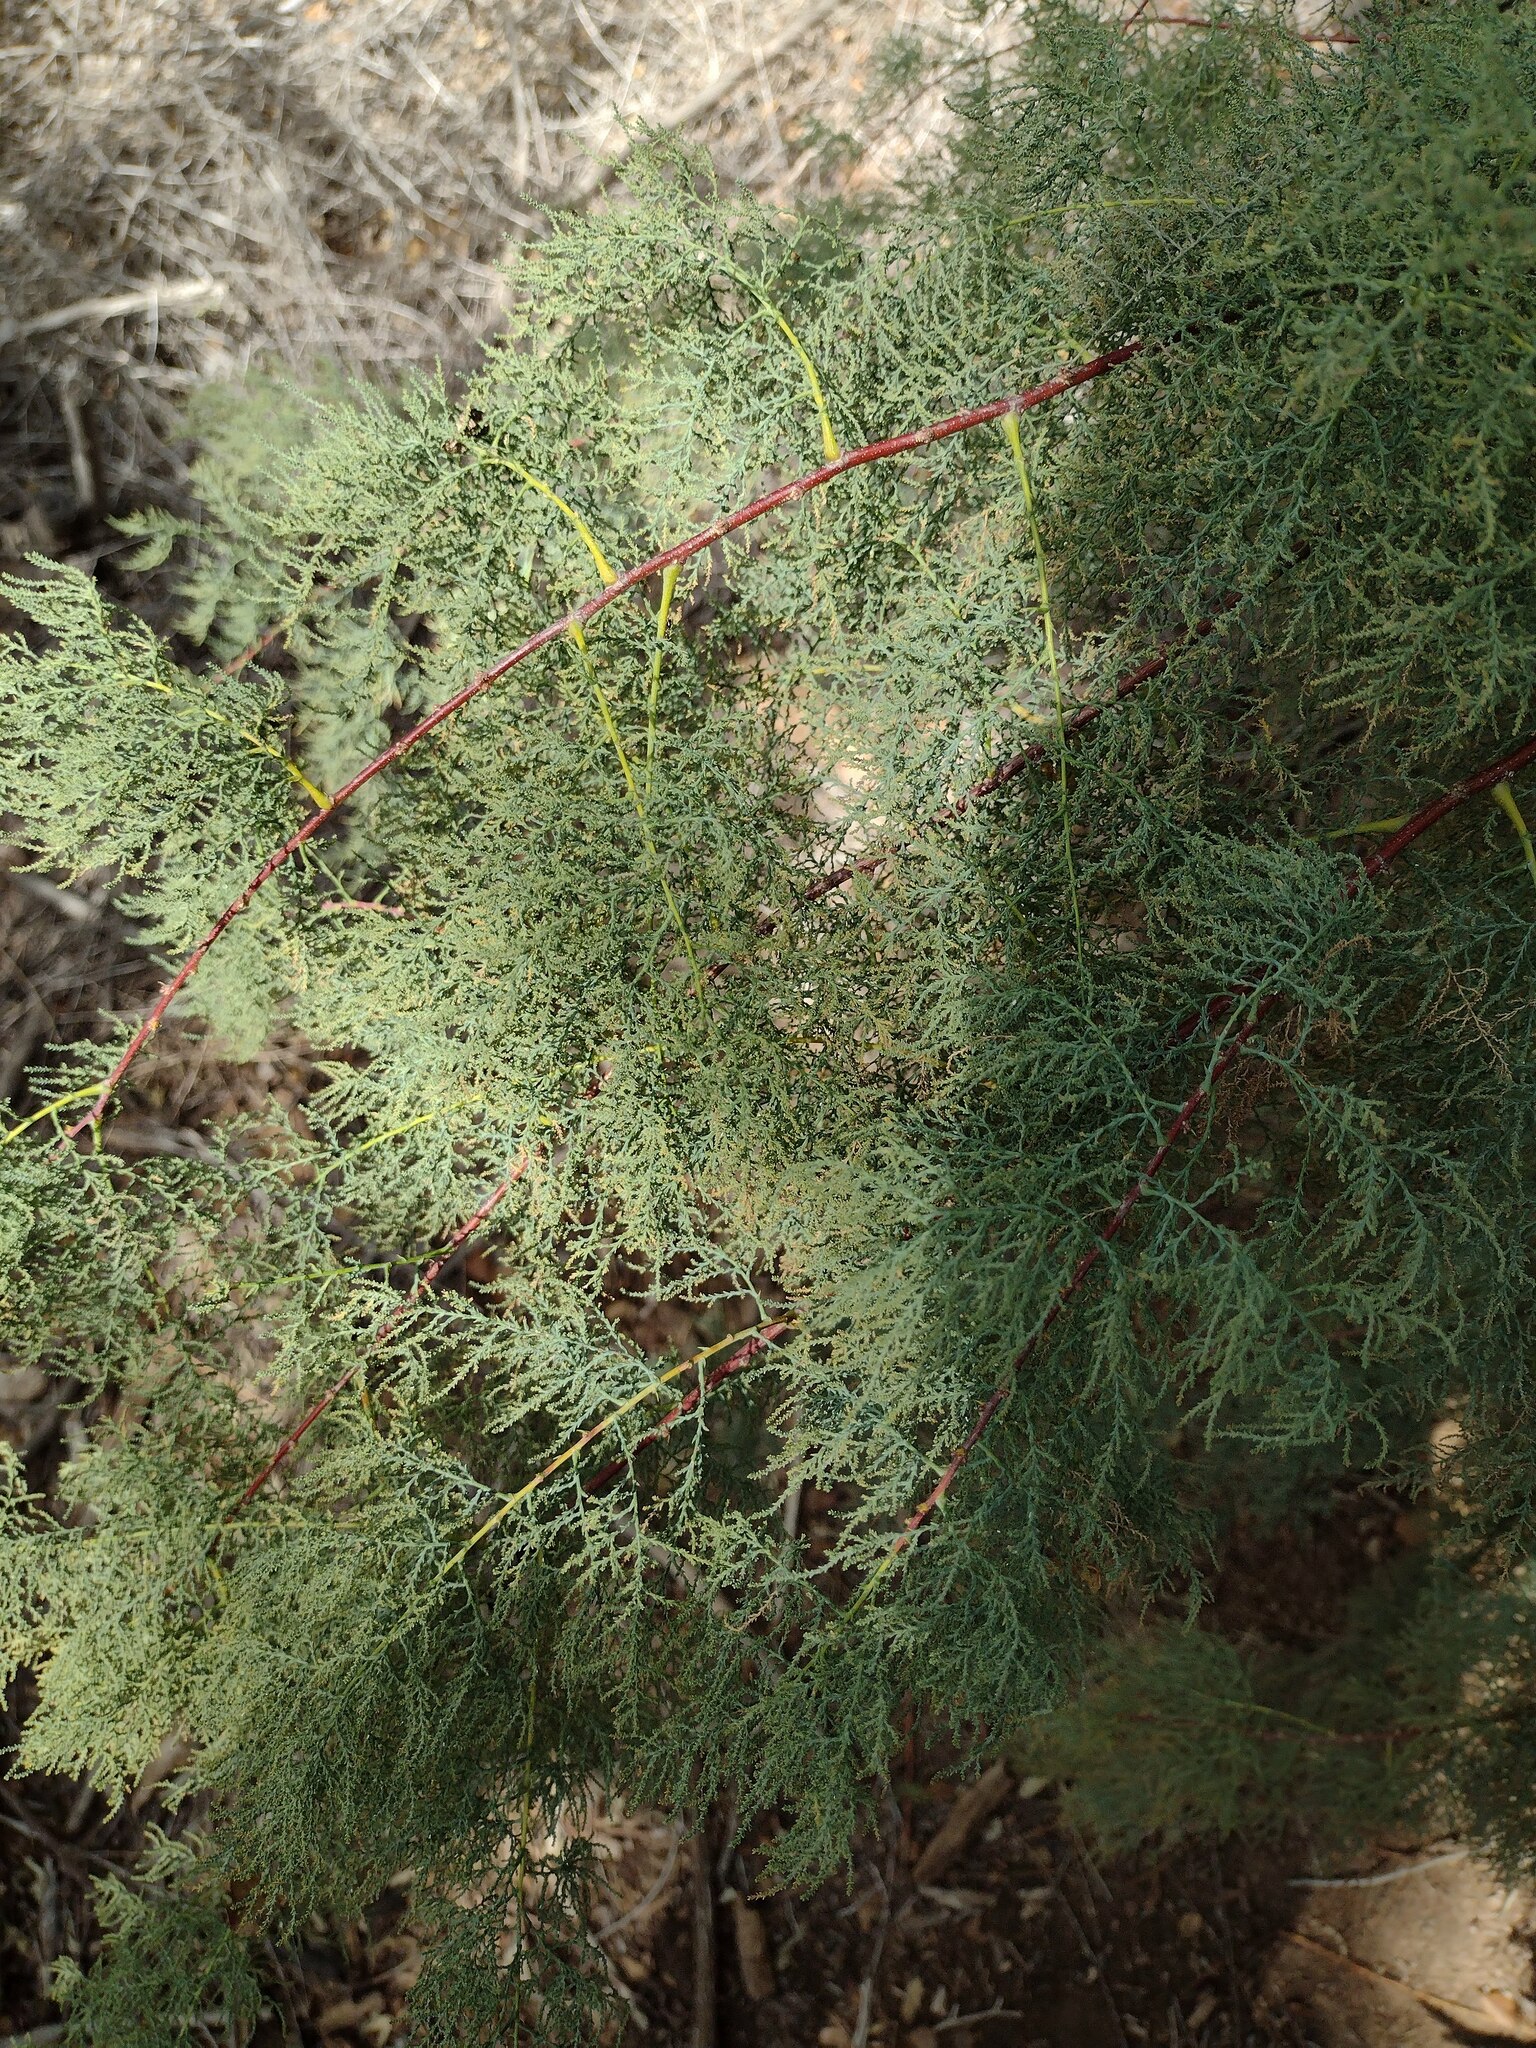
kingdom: Plantae
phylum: Tracheophyta
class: Magnoliopsida
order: Caryophyllales
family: Tamaricaceae
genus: Tamarix
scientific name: Tamarix
